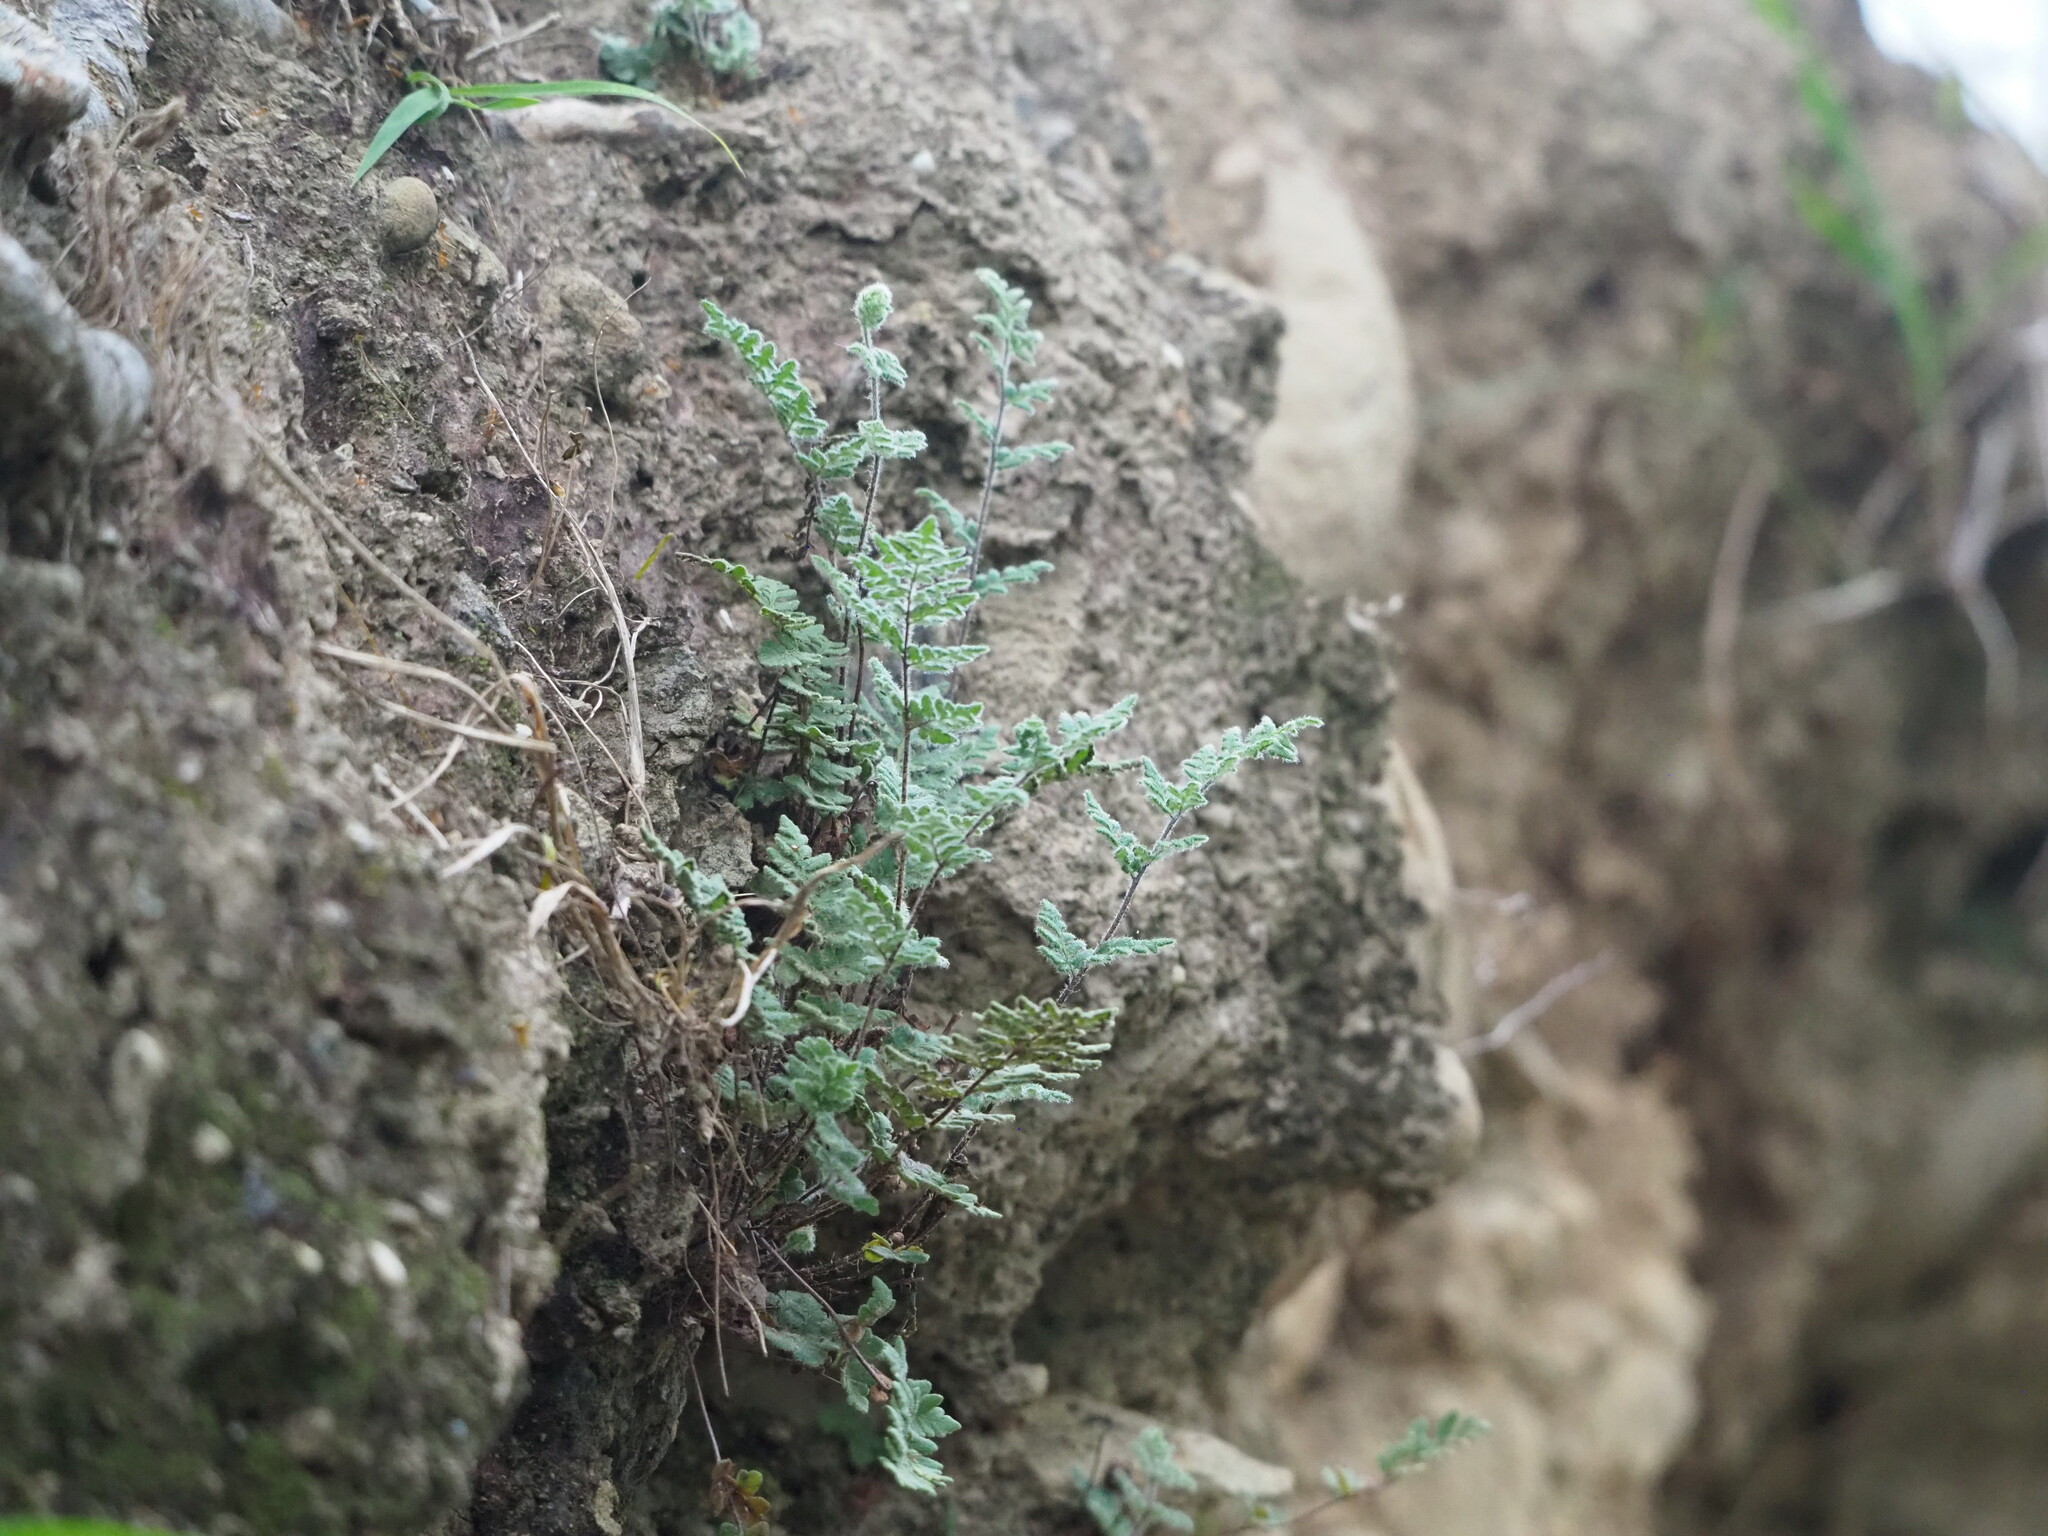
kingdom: Plantae
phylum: Tracheophyta
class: Polypodiopsida
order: Polypodiales
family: Pteridaceae
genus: Cheilanthes
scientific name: Cheilanthes nudiuscula
